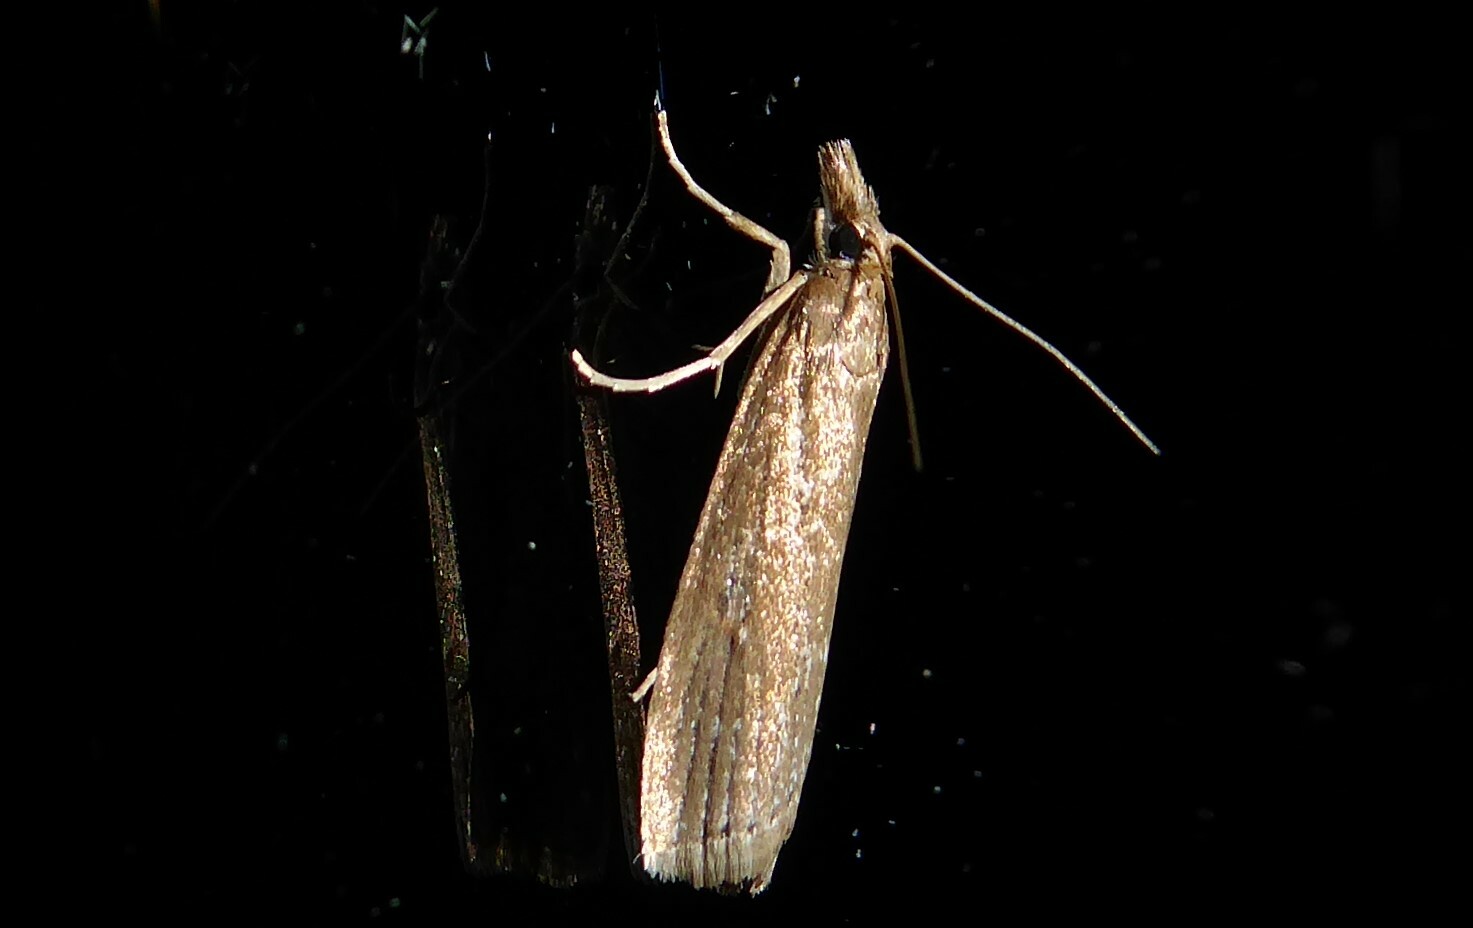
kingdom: Animalia
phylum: Arthropoda
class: Insecta
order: Lepidoptera
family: Crambidae
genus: Eudonia
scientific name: Eudonia octophora
